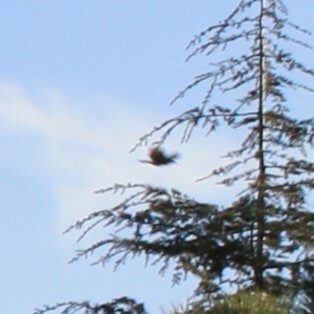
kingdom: Animalia
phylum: Chordata
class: Aves
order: Passeriformes
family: Corvidae
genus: Garrulus
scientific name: Garrulus glandarius
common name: Eurasian jay
